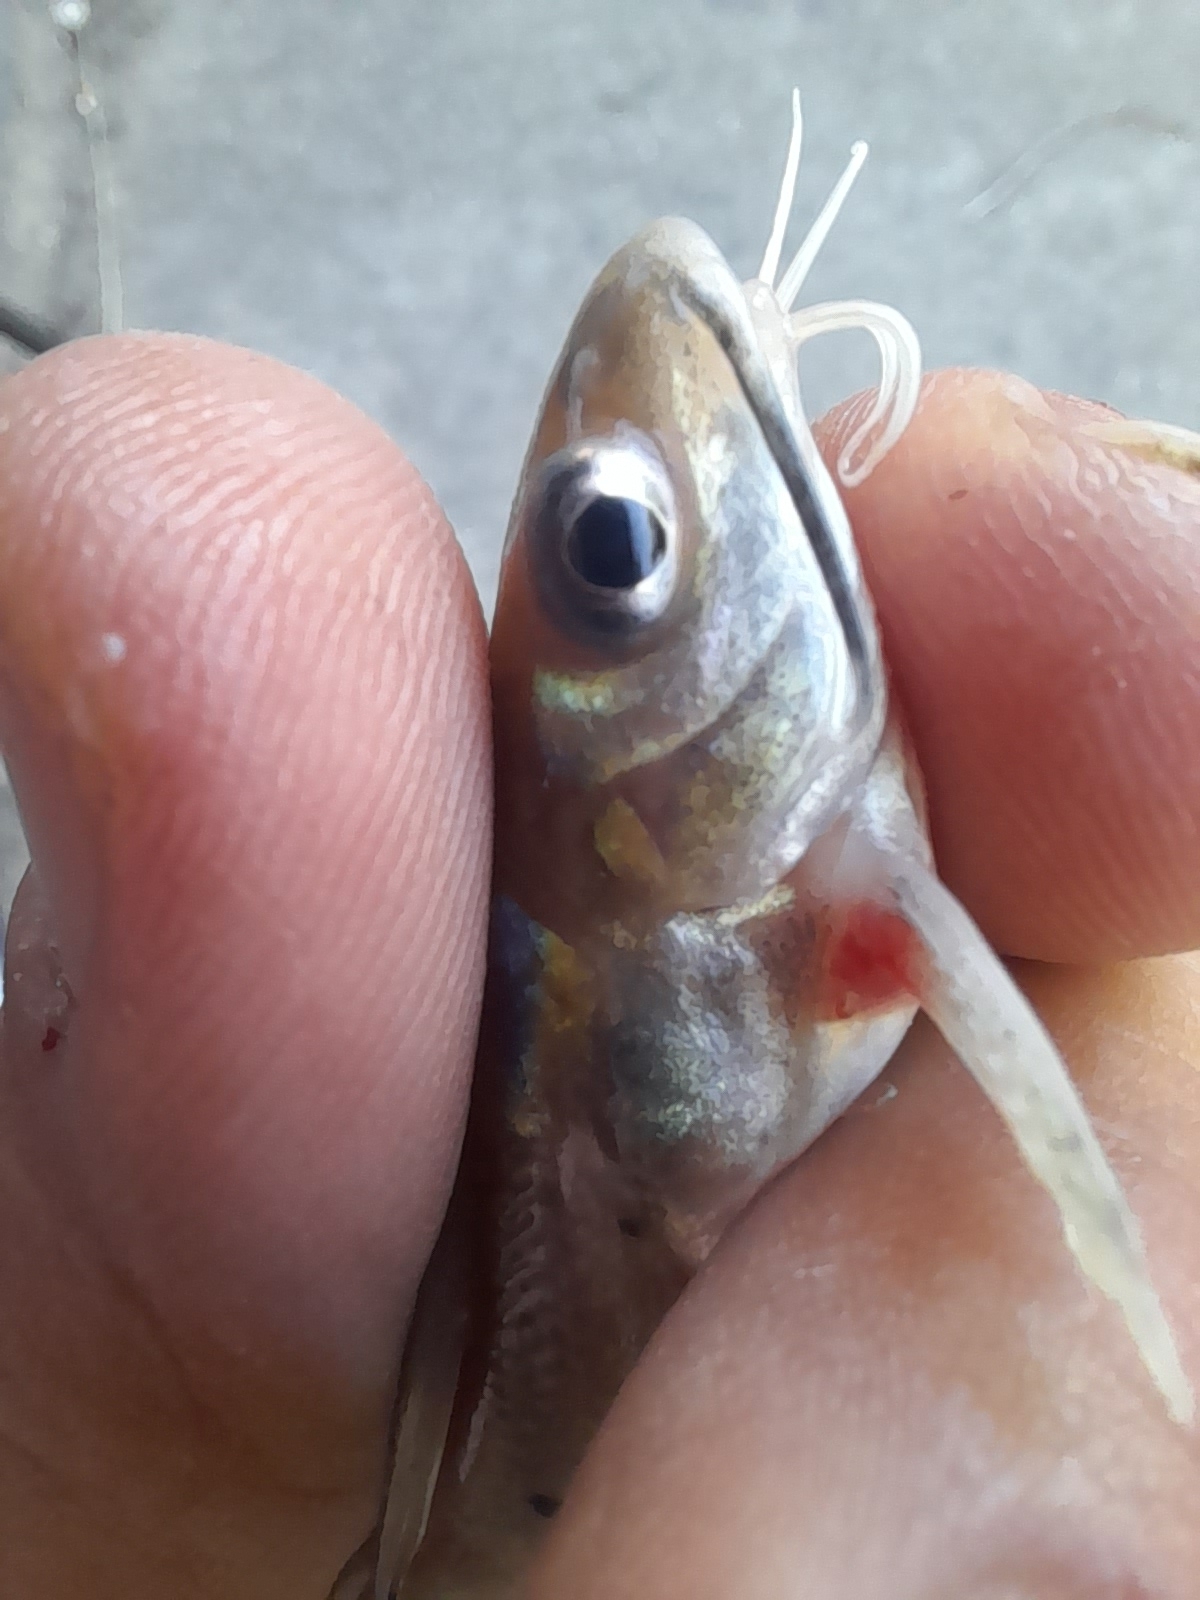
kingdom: Animalia
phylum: Chordata
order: Siluriformes
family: Ictaluridae
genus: Ictalurus
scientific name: Ictalurus punctatus
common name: Channel catfish
